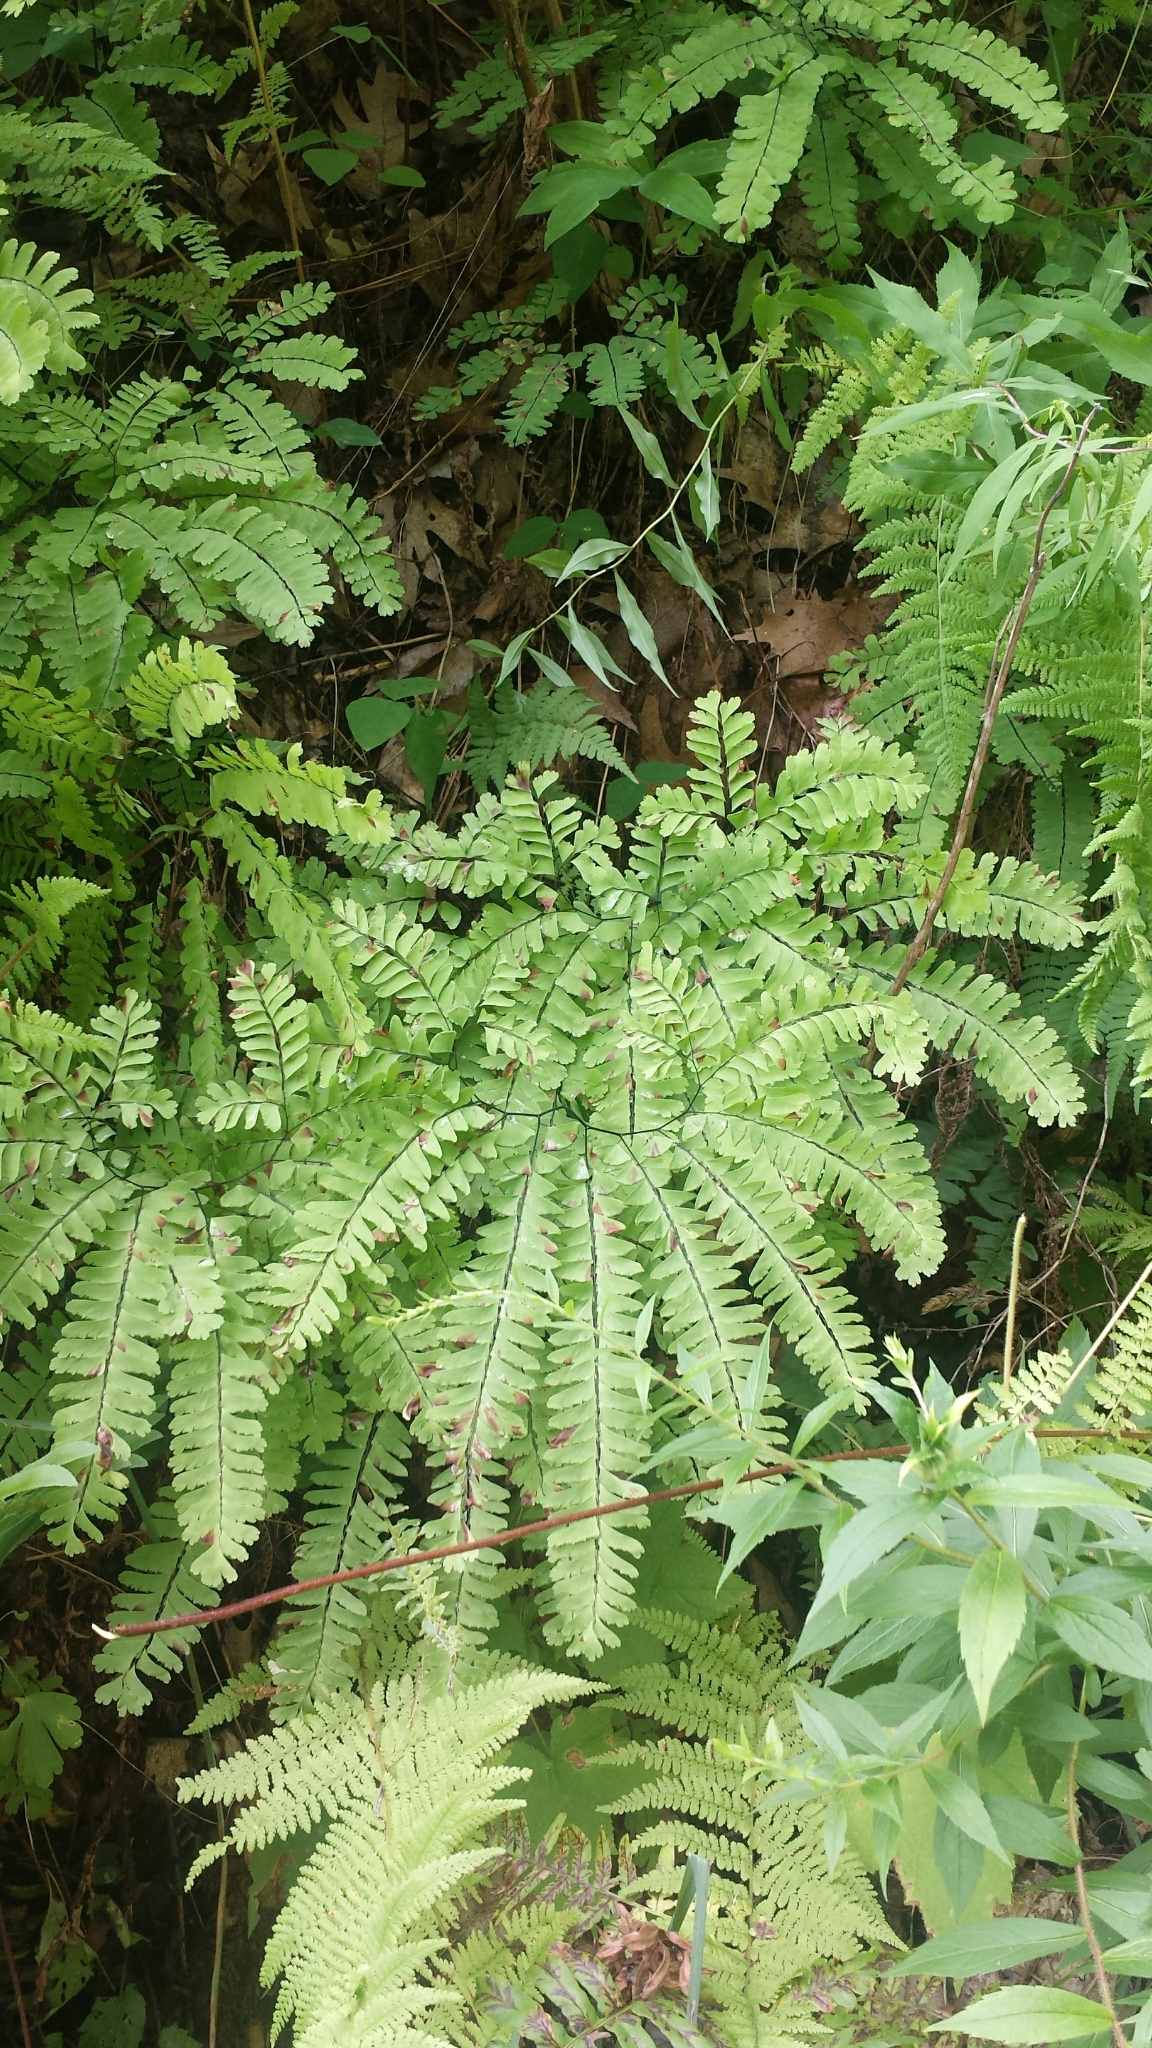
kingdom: Plantae
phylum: Tracheophyta
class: Polypodiopsida
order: Polypodiales
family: Pteridaceae
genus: Adiantum
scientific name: Adiantum pedatum
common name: Five-finger fern
